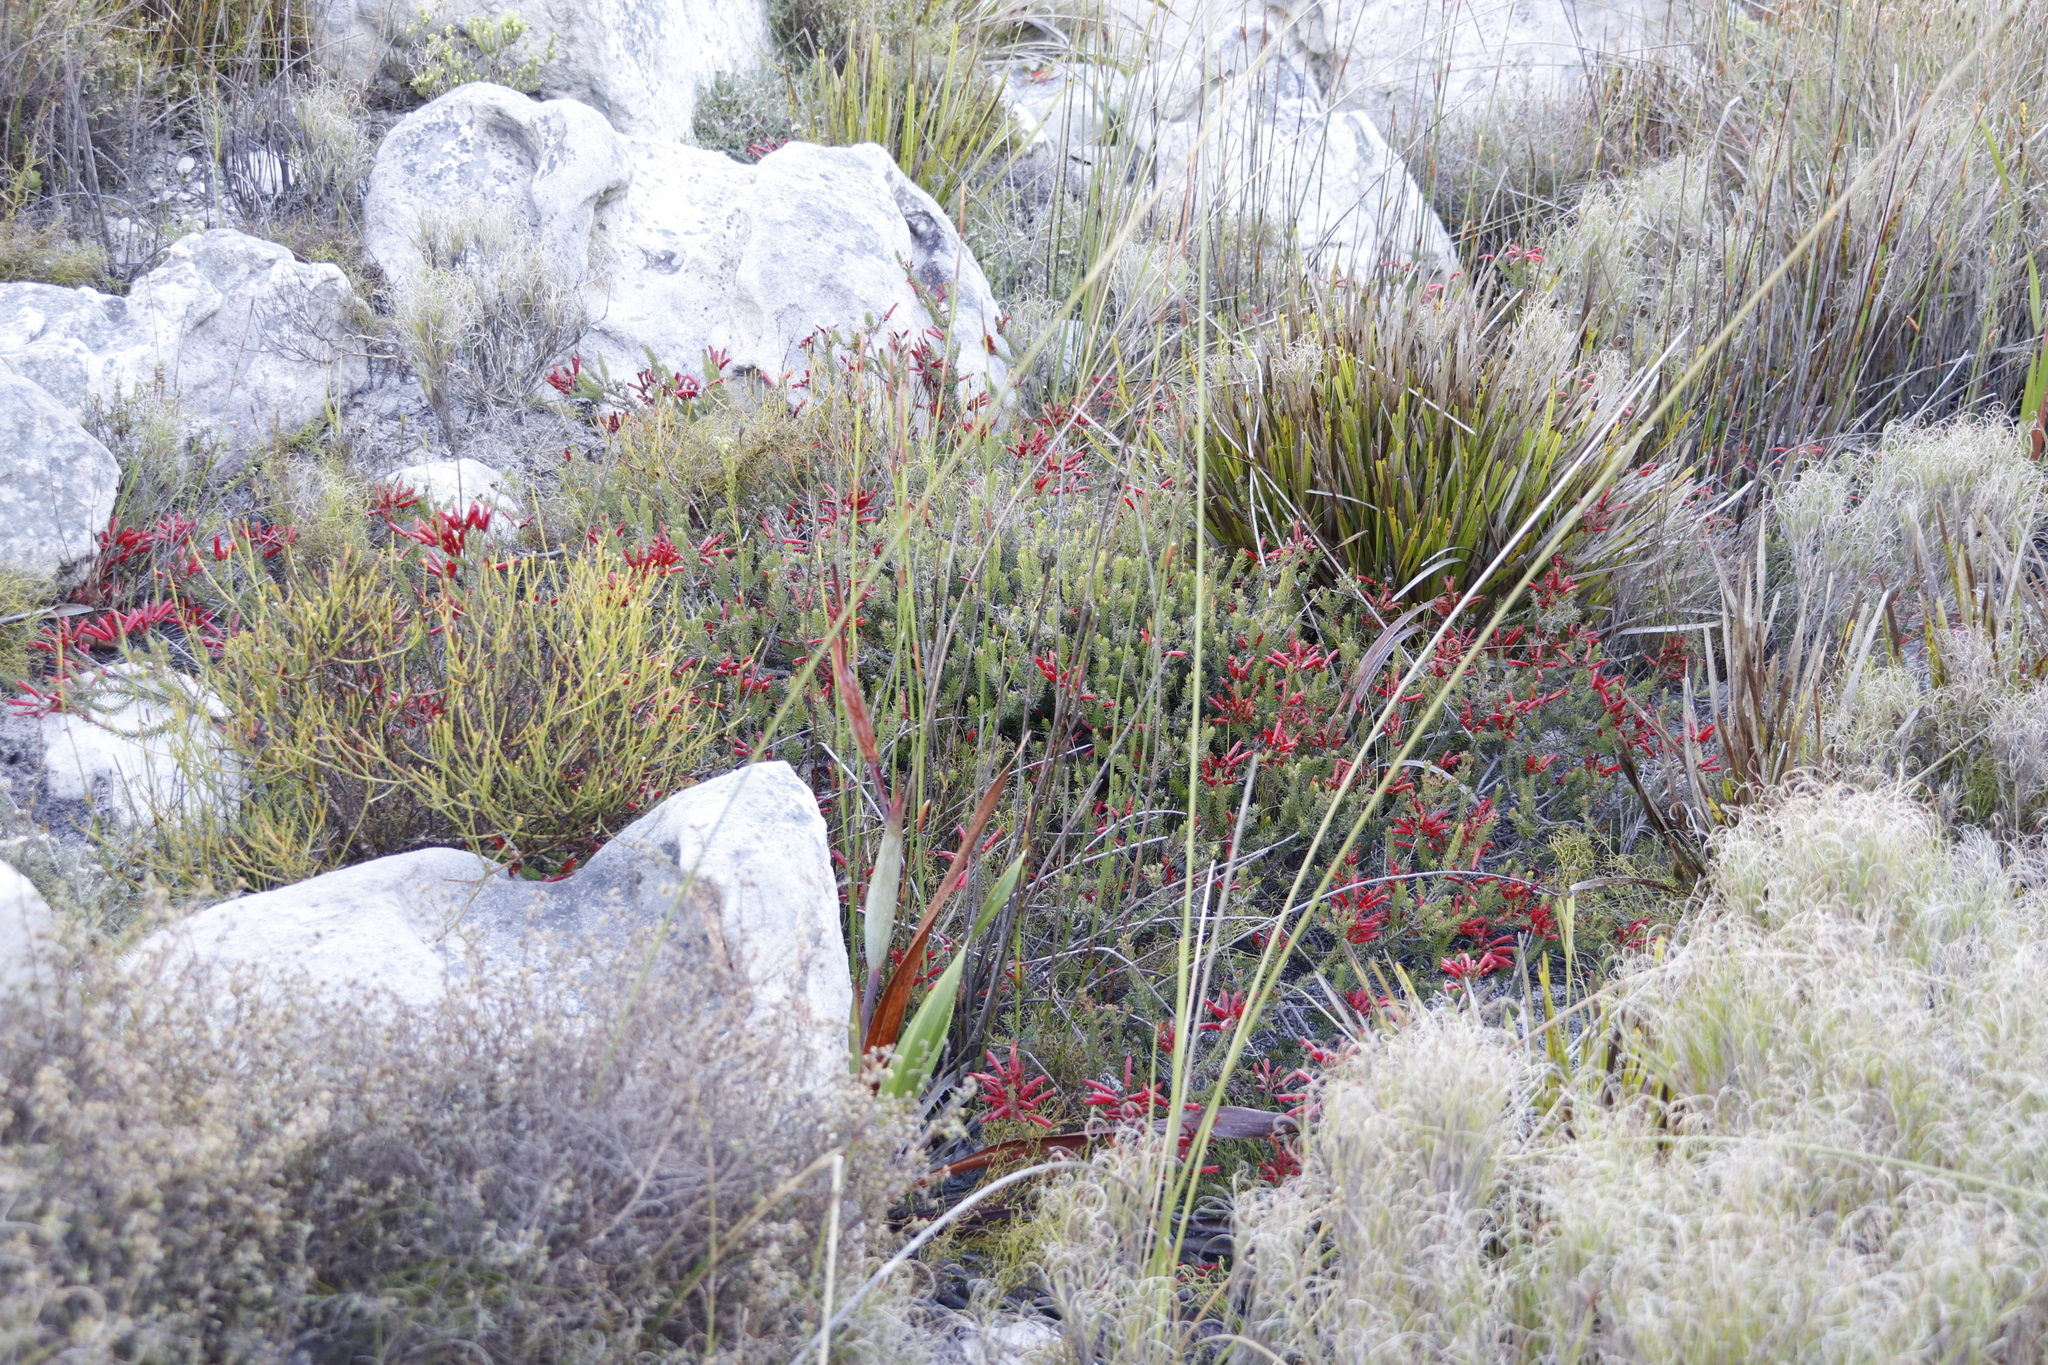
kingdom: Plantae
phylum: Tracheophyta
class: Magnoliopsida
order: Ericales
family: Ericaceae
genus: Erica
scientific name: Erica nevillei
